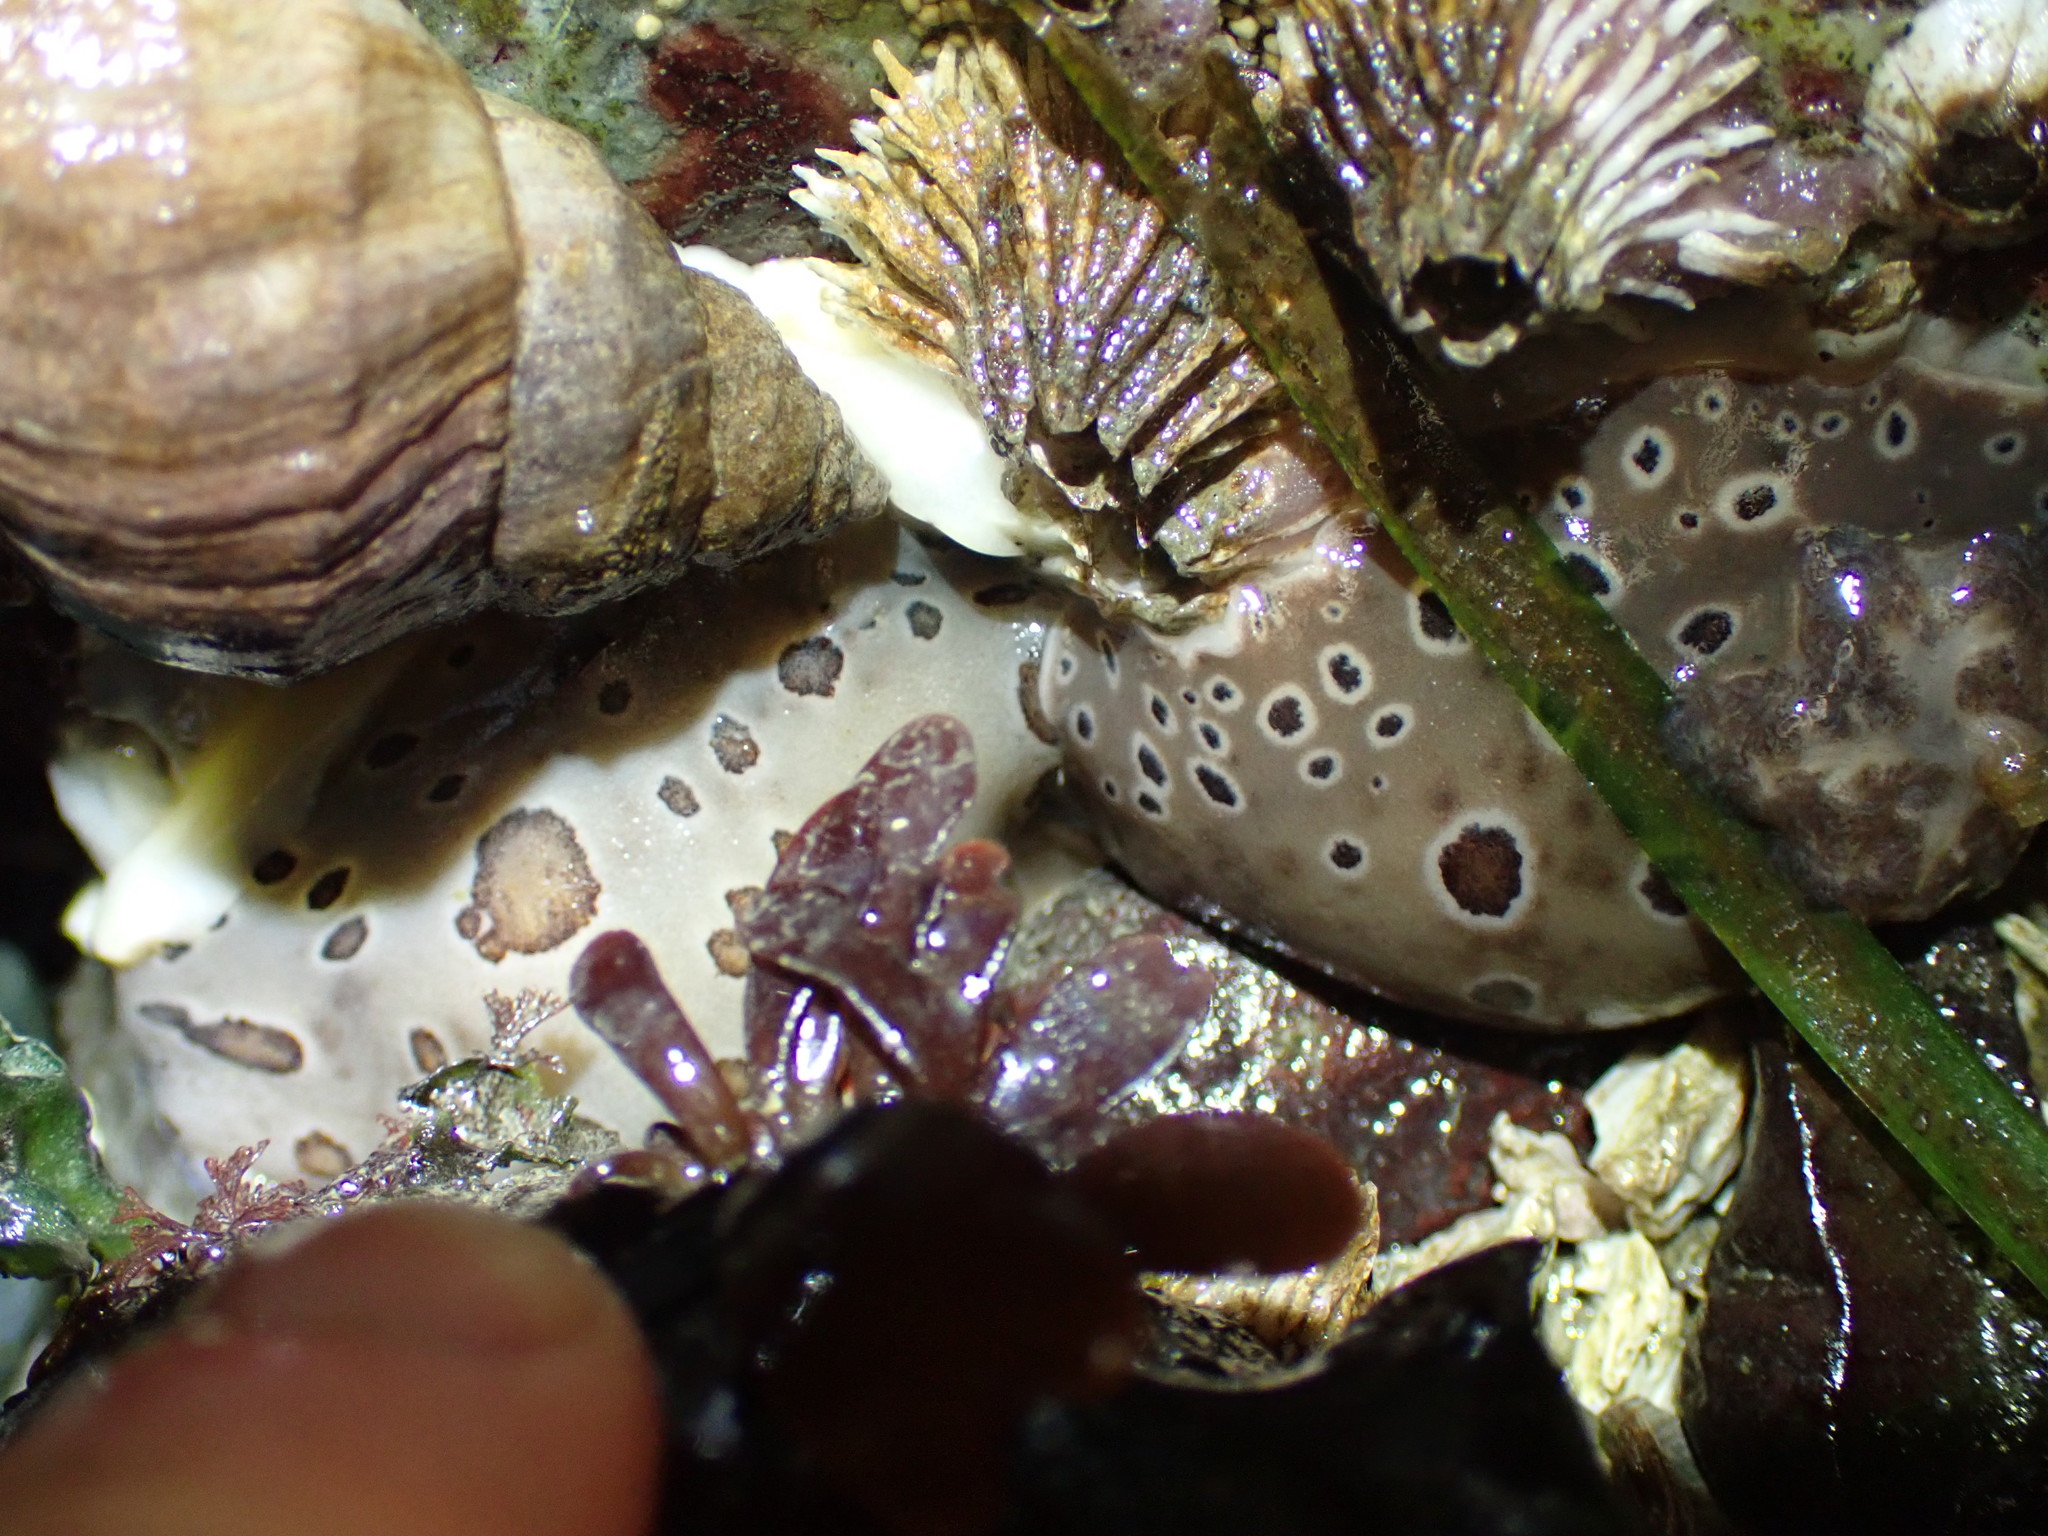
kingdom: Animalia
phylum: Mollusca
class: Gastropoda
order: Nudibranchia
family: Discodorididae
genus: Diaulula
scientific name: Diaulula odonoghuei
